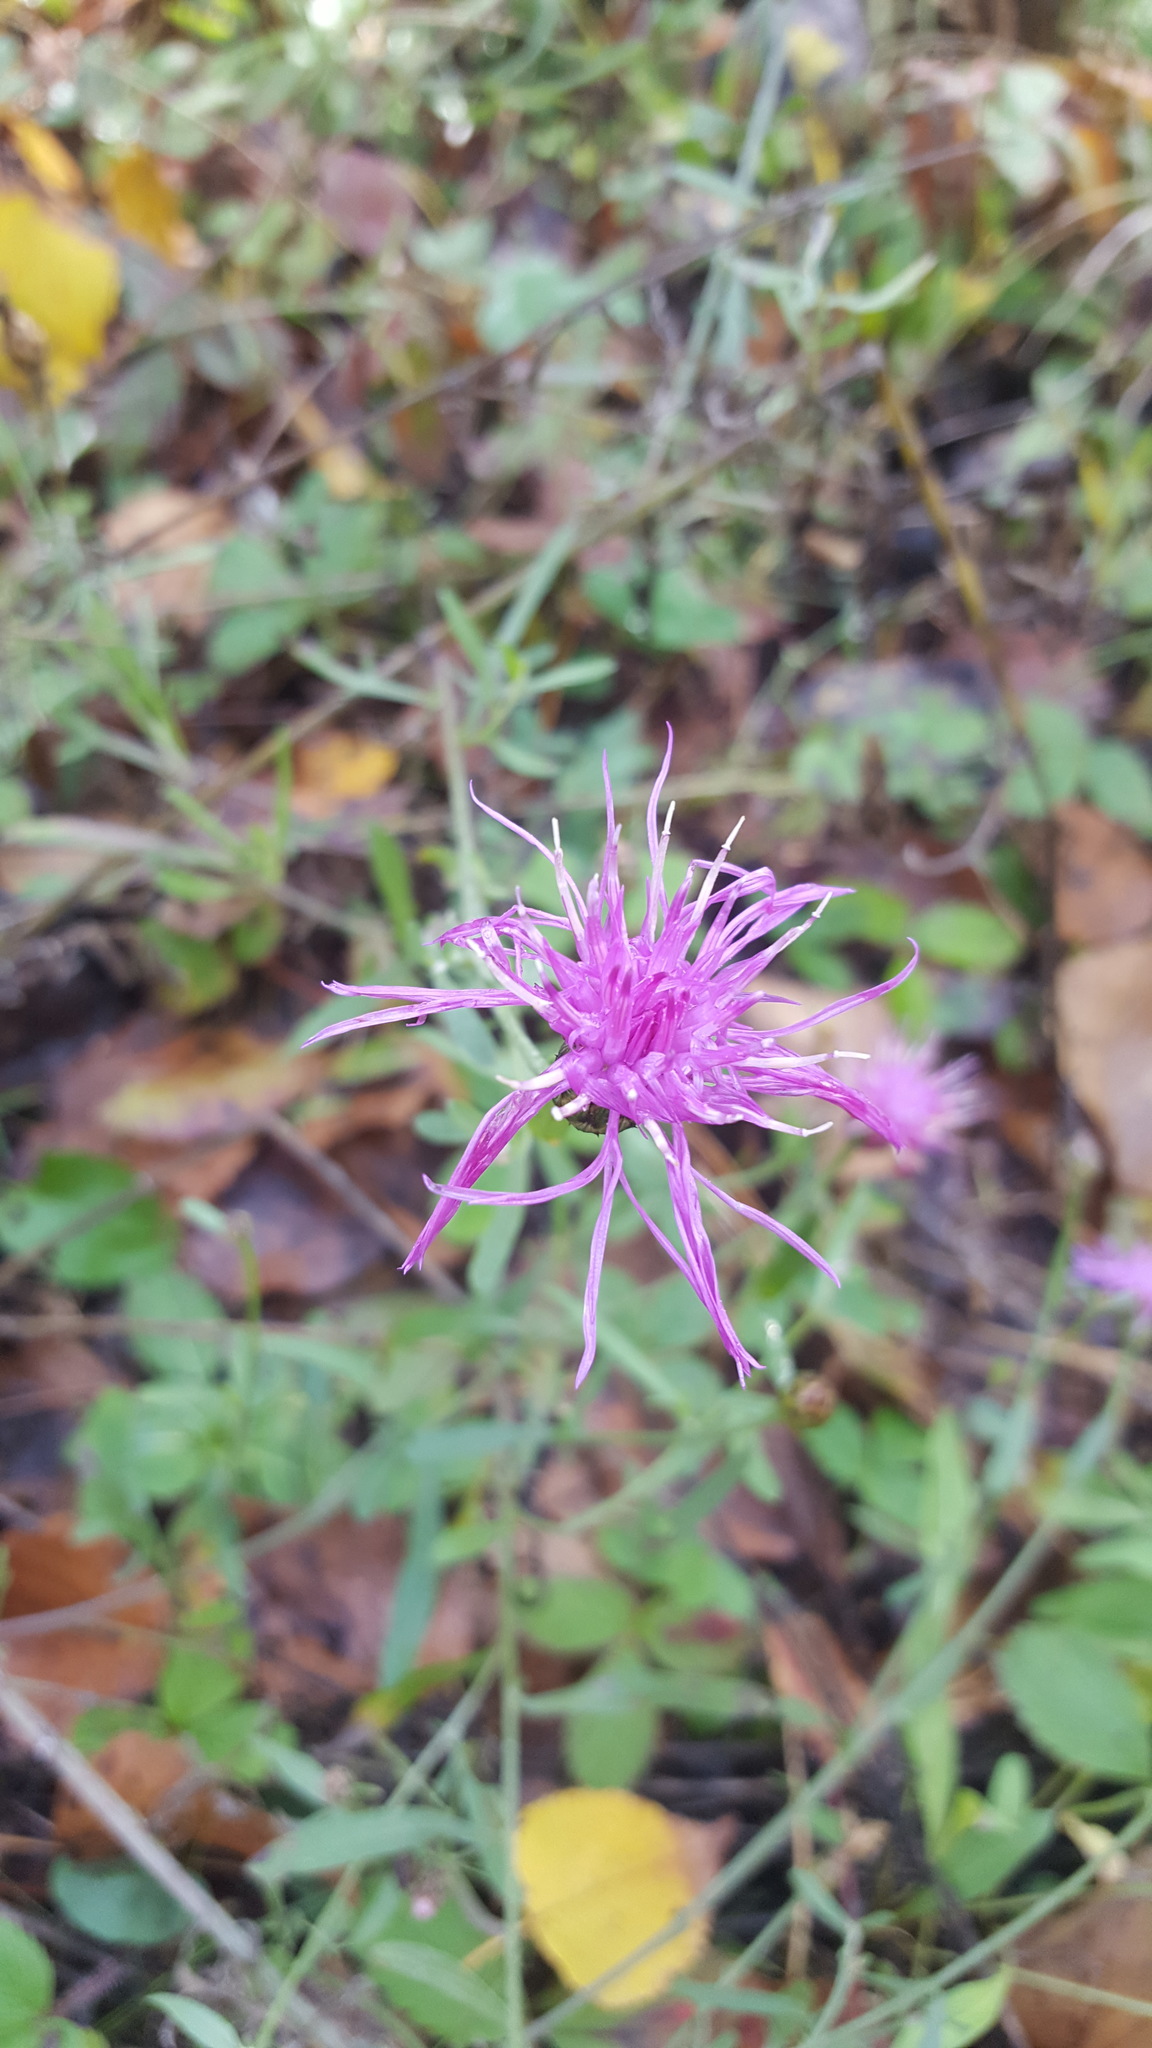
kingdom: Plantae
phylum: Tracheophyta
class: Magnoliopsida
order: Asterales
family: Asteraceae
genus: Centaurea
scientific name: Centaurea stoebe
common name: Spotted knapweed
